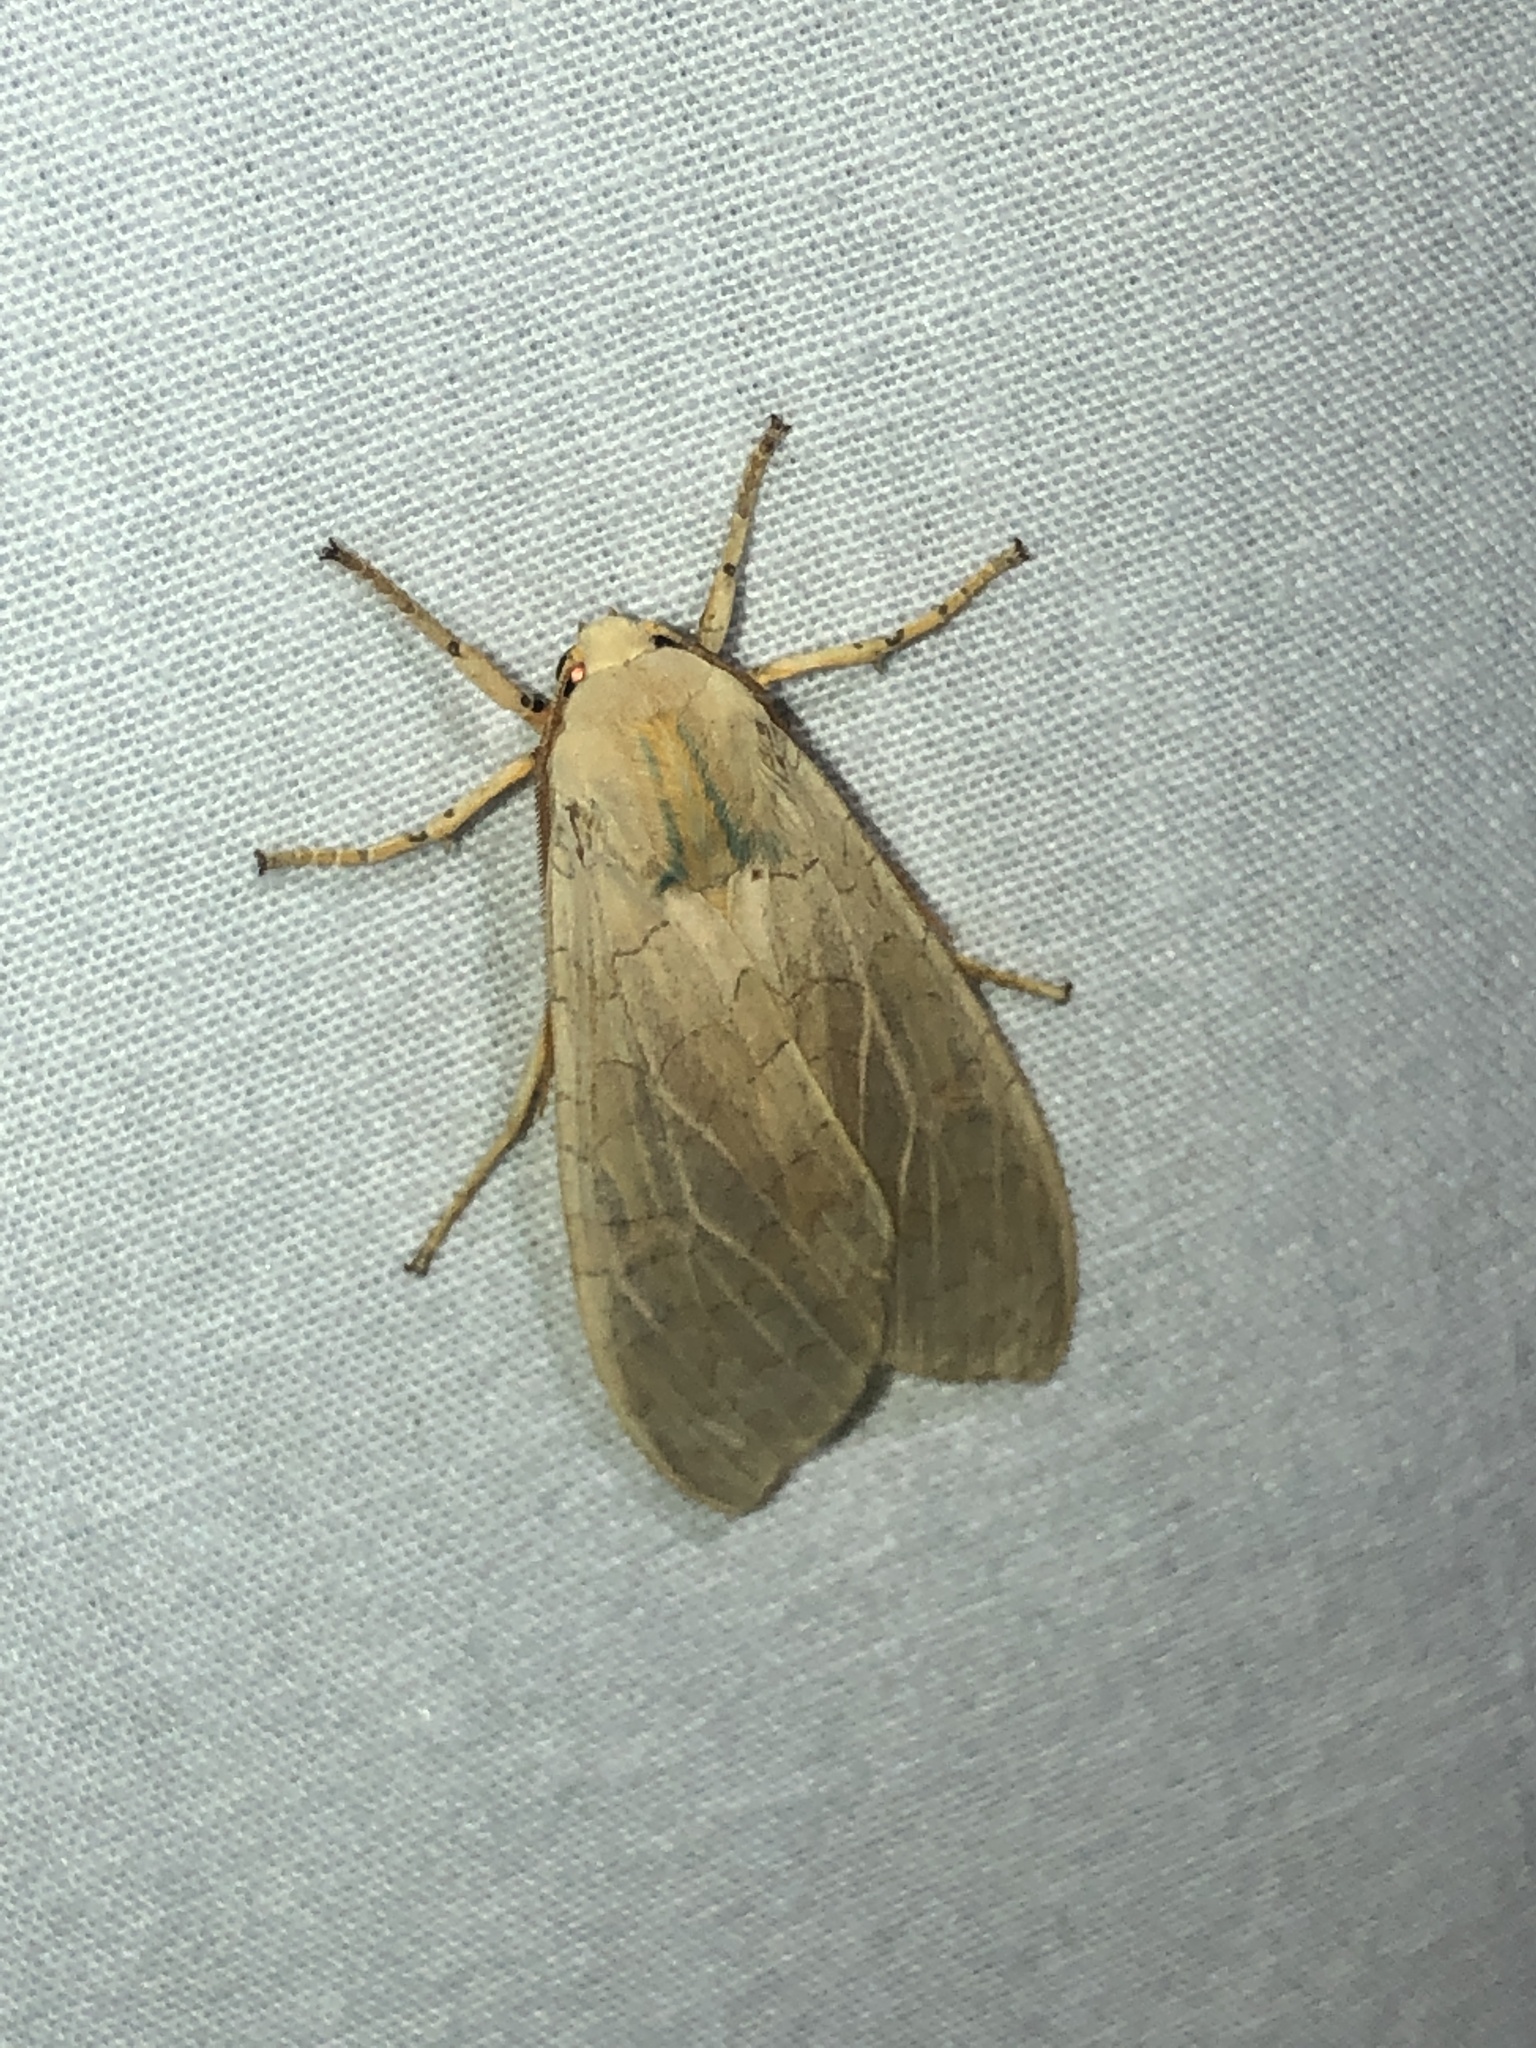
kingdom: Animalia
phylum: Arthropoda
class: Insecta
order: Lepidoptera
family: Erebidae
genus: Halysidota
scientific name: Halysidota
